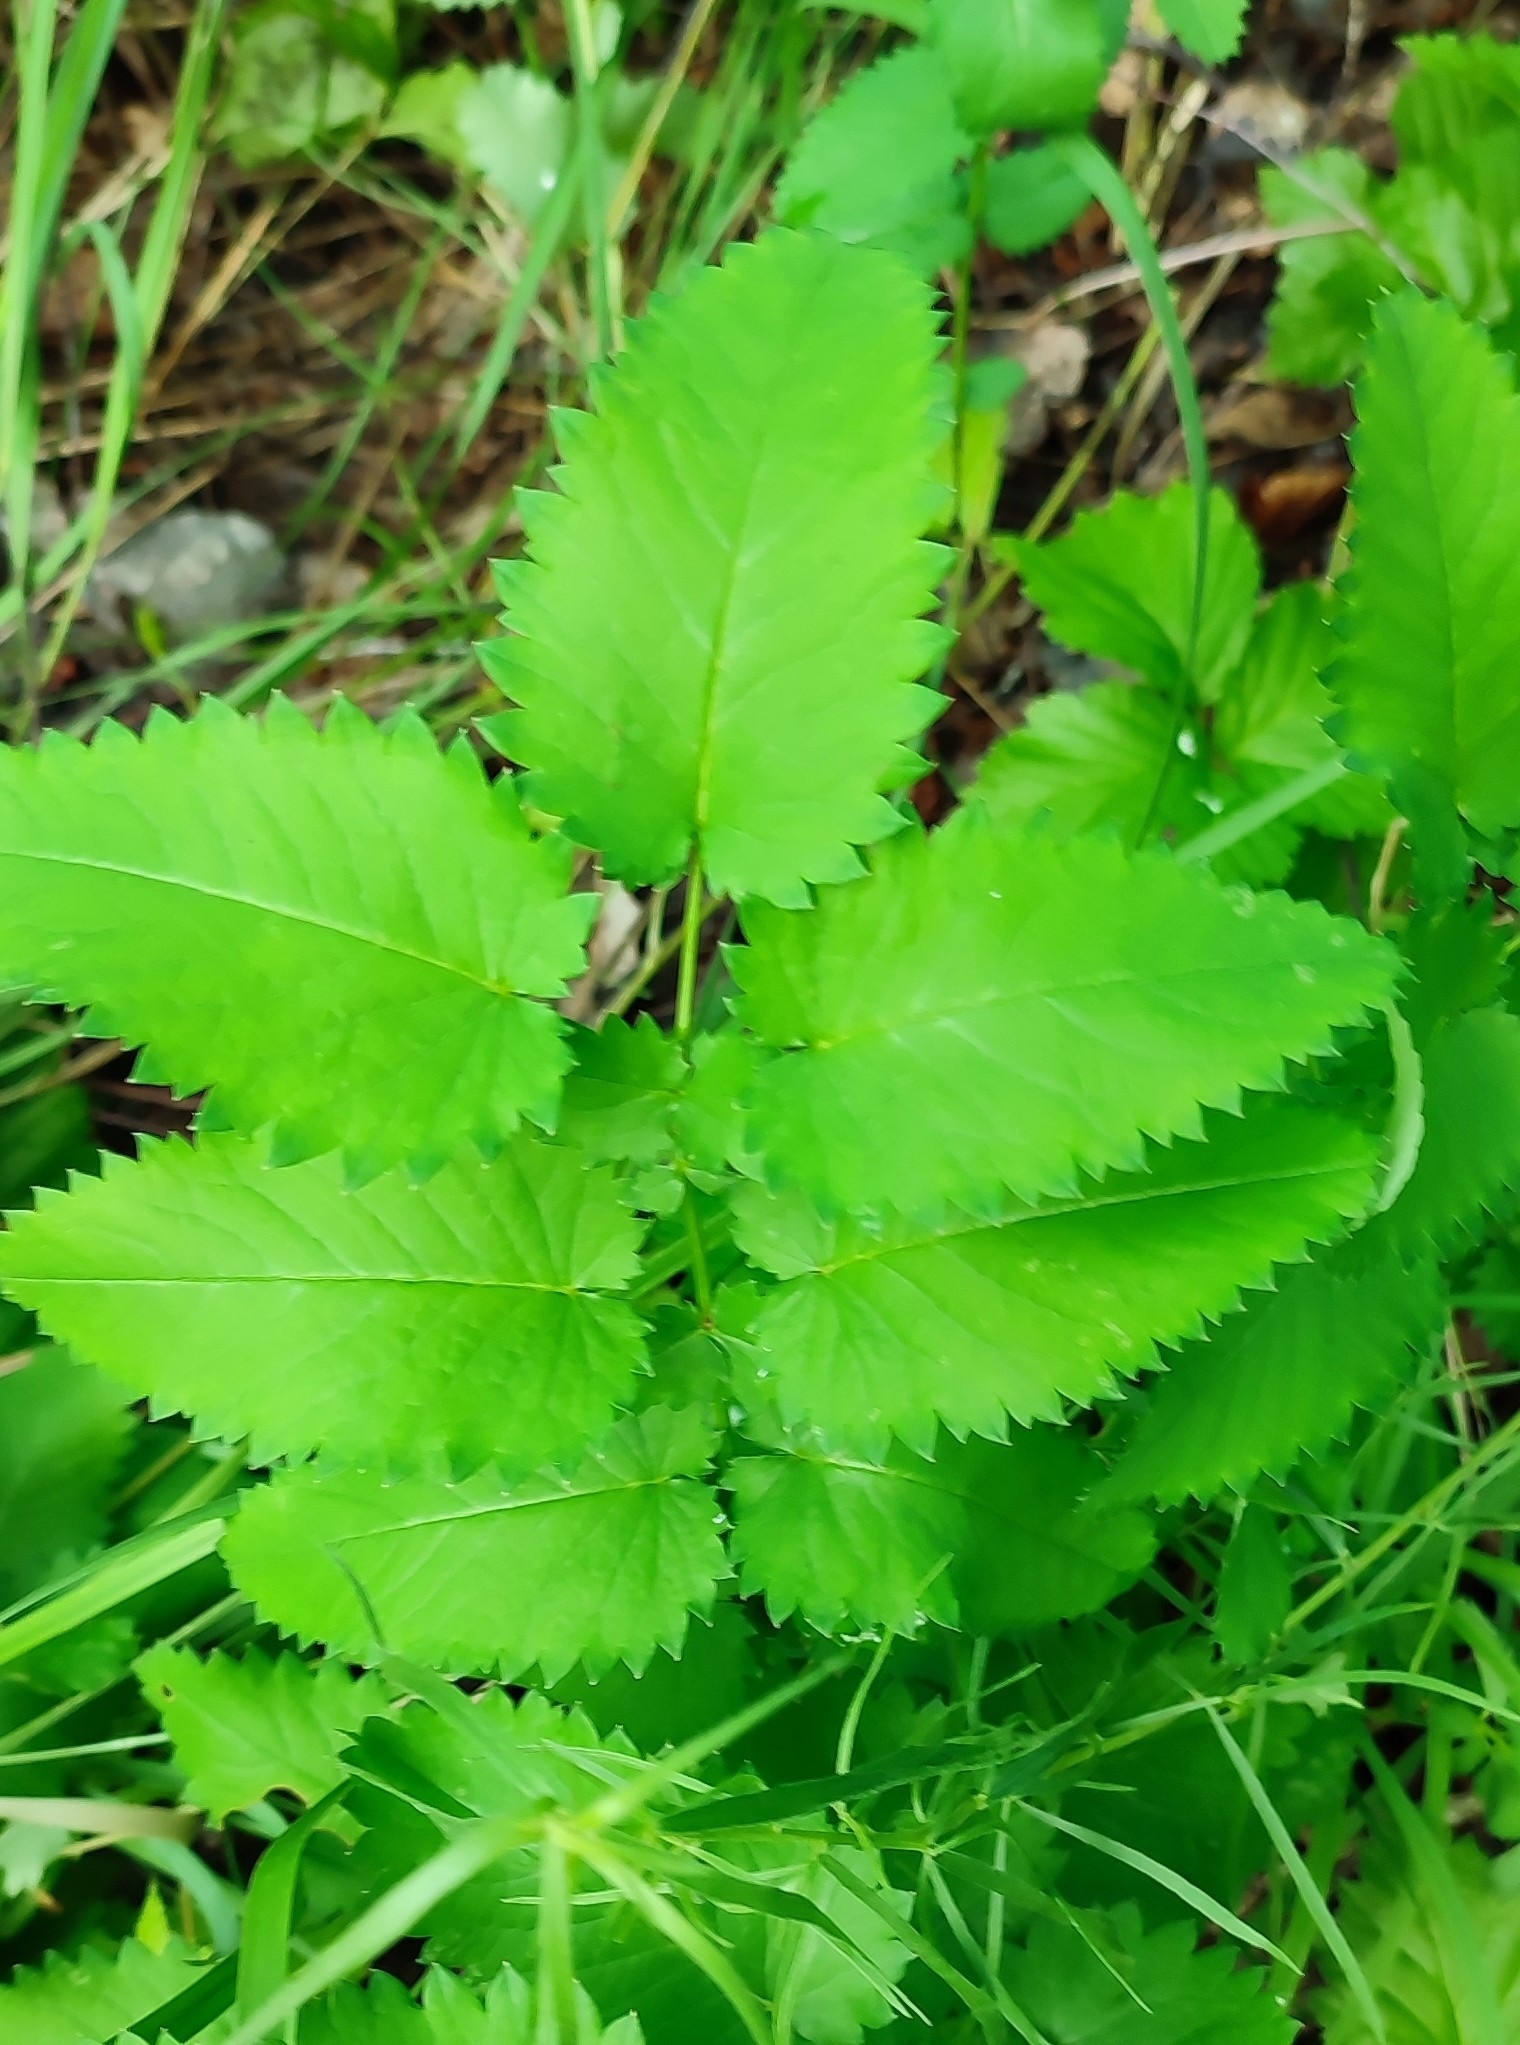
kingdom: Plantae
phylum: Tracheophyta
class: Magnoliopsida
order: Rosales
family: Rosaceae
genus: Sanguisorba
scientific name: Sanguisorba officinalis
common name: Great burnet
